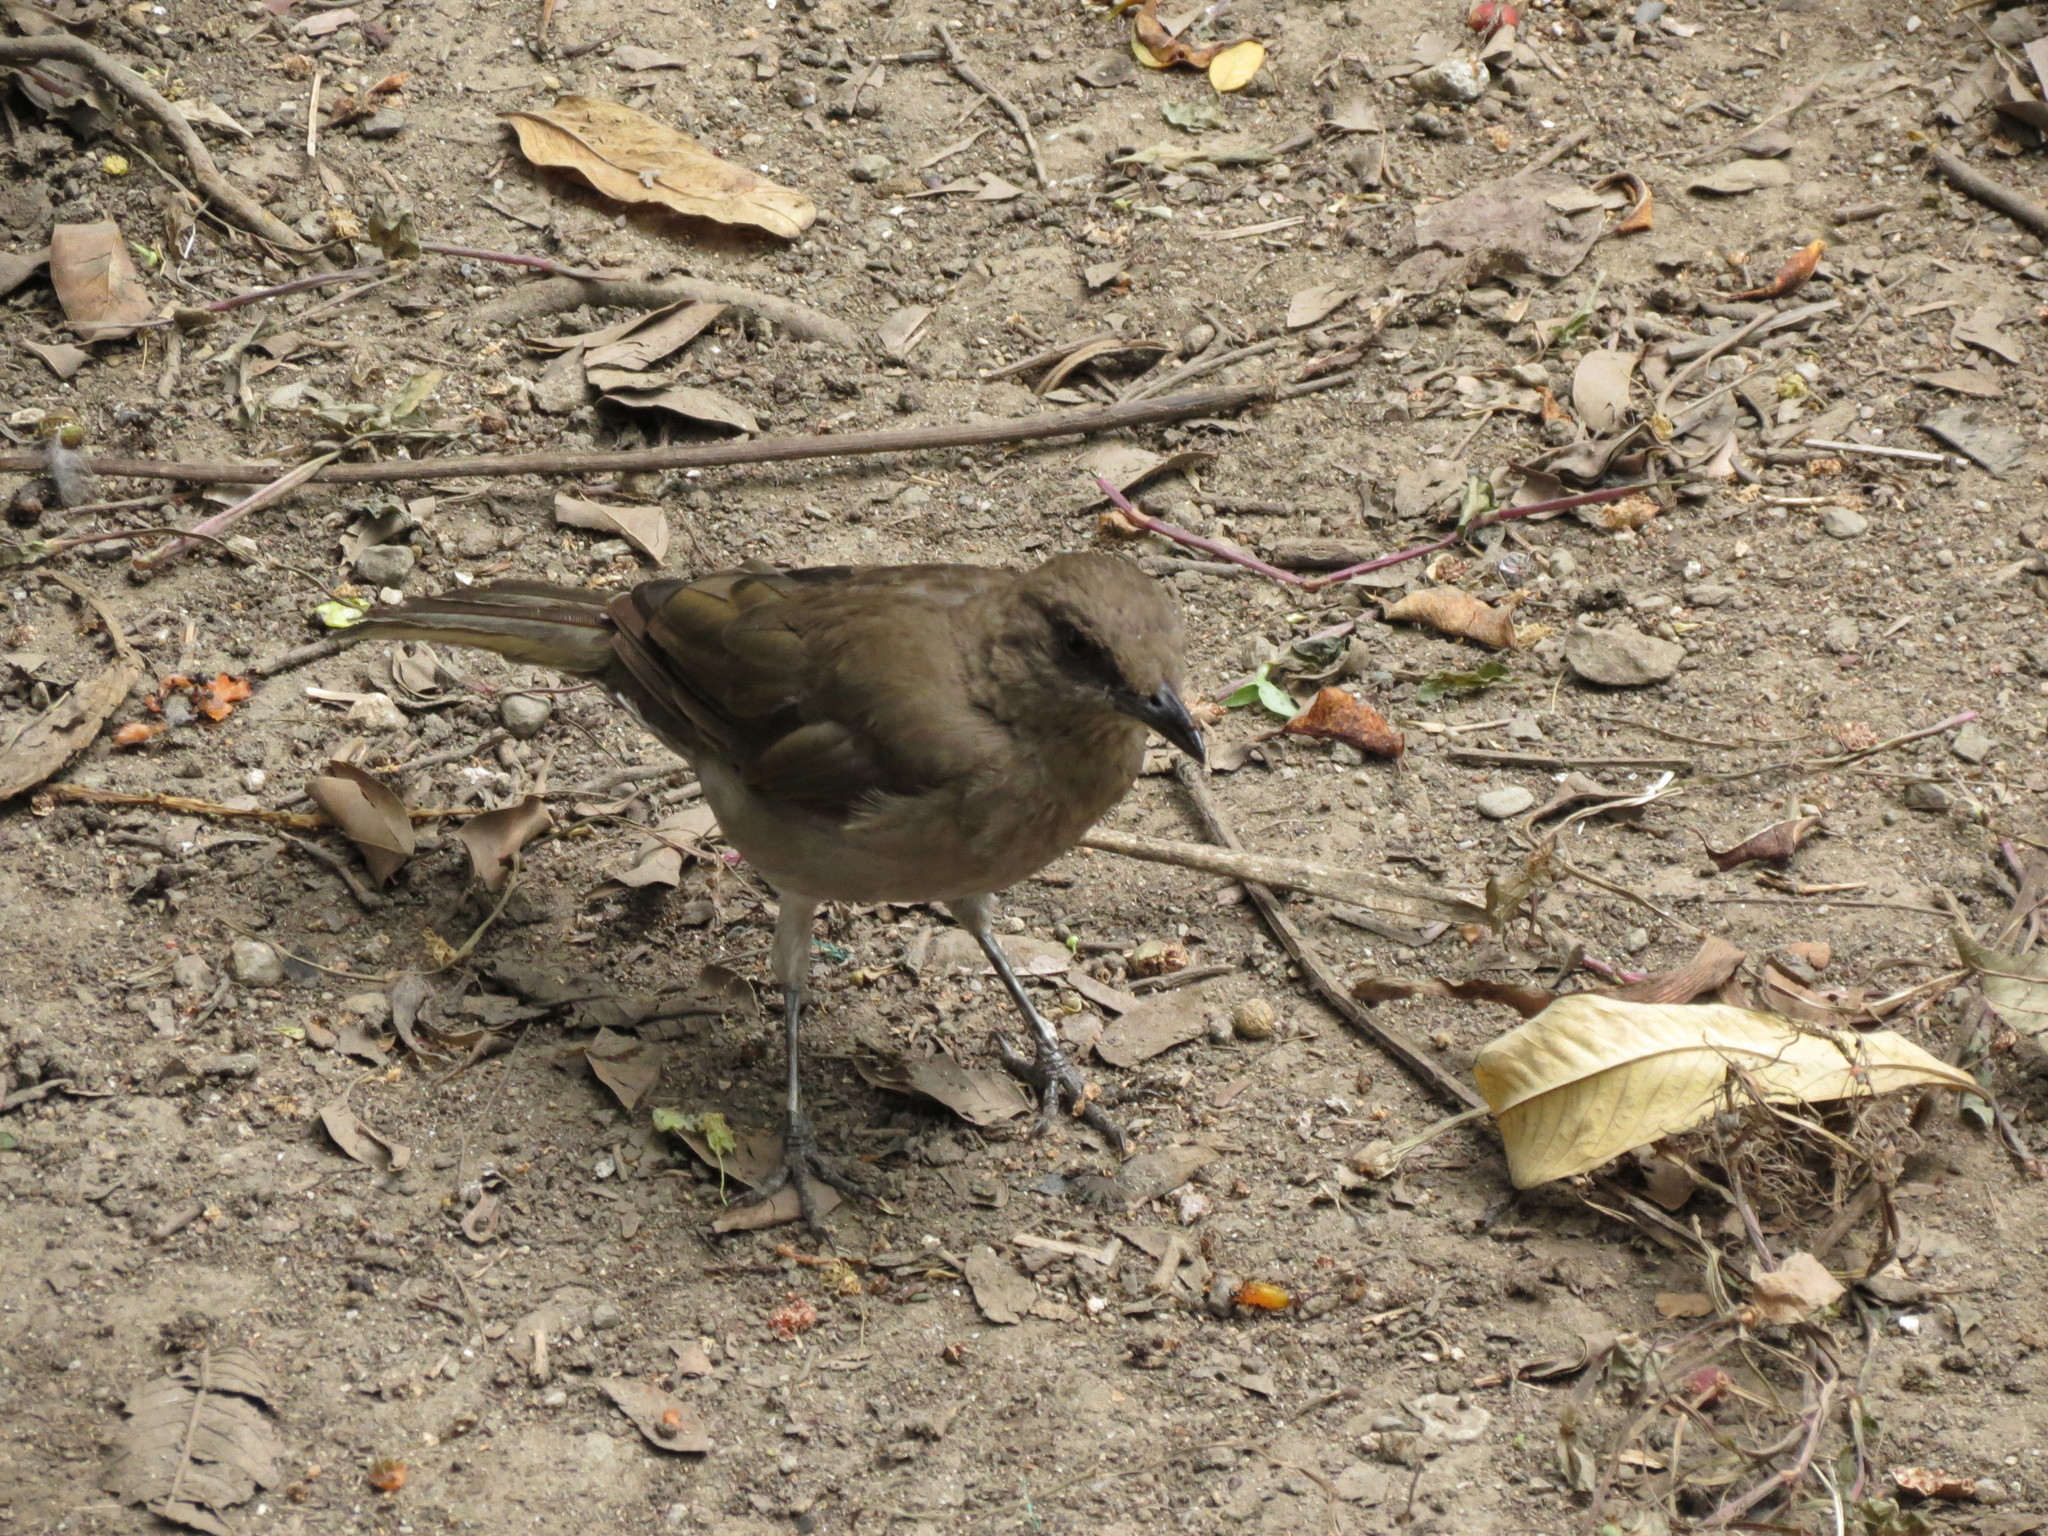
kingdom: Animalia
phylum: Chordata
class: Aves
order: Passeriformes
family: Turdidae
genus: Turdus
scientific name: Turdus ignobilis
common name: Black-billed thrush
